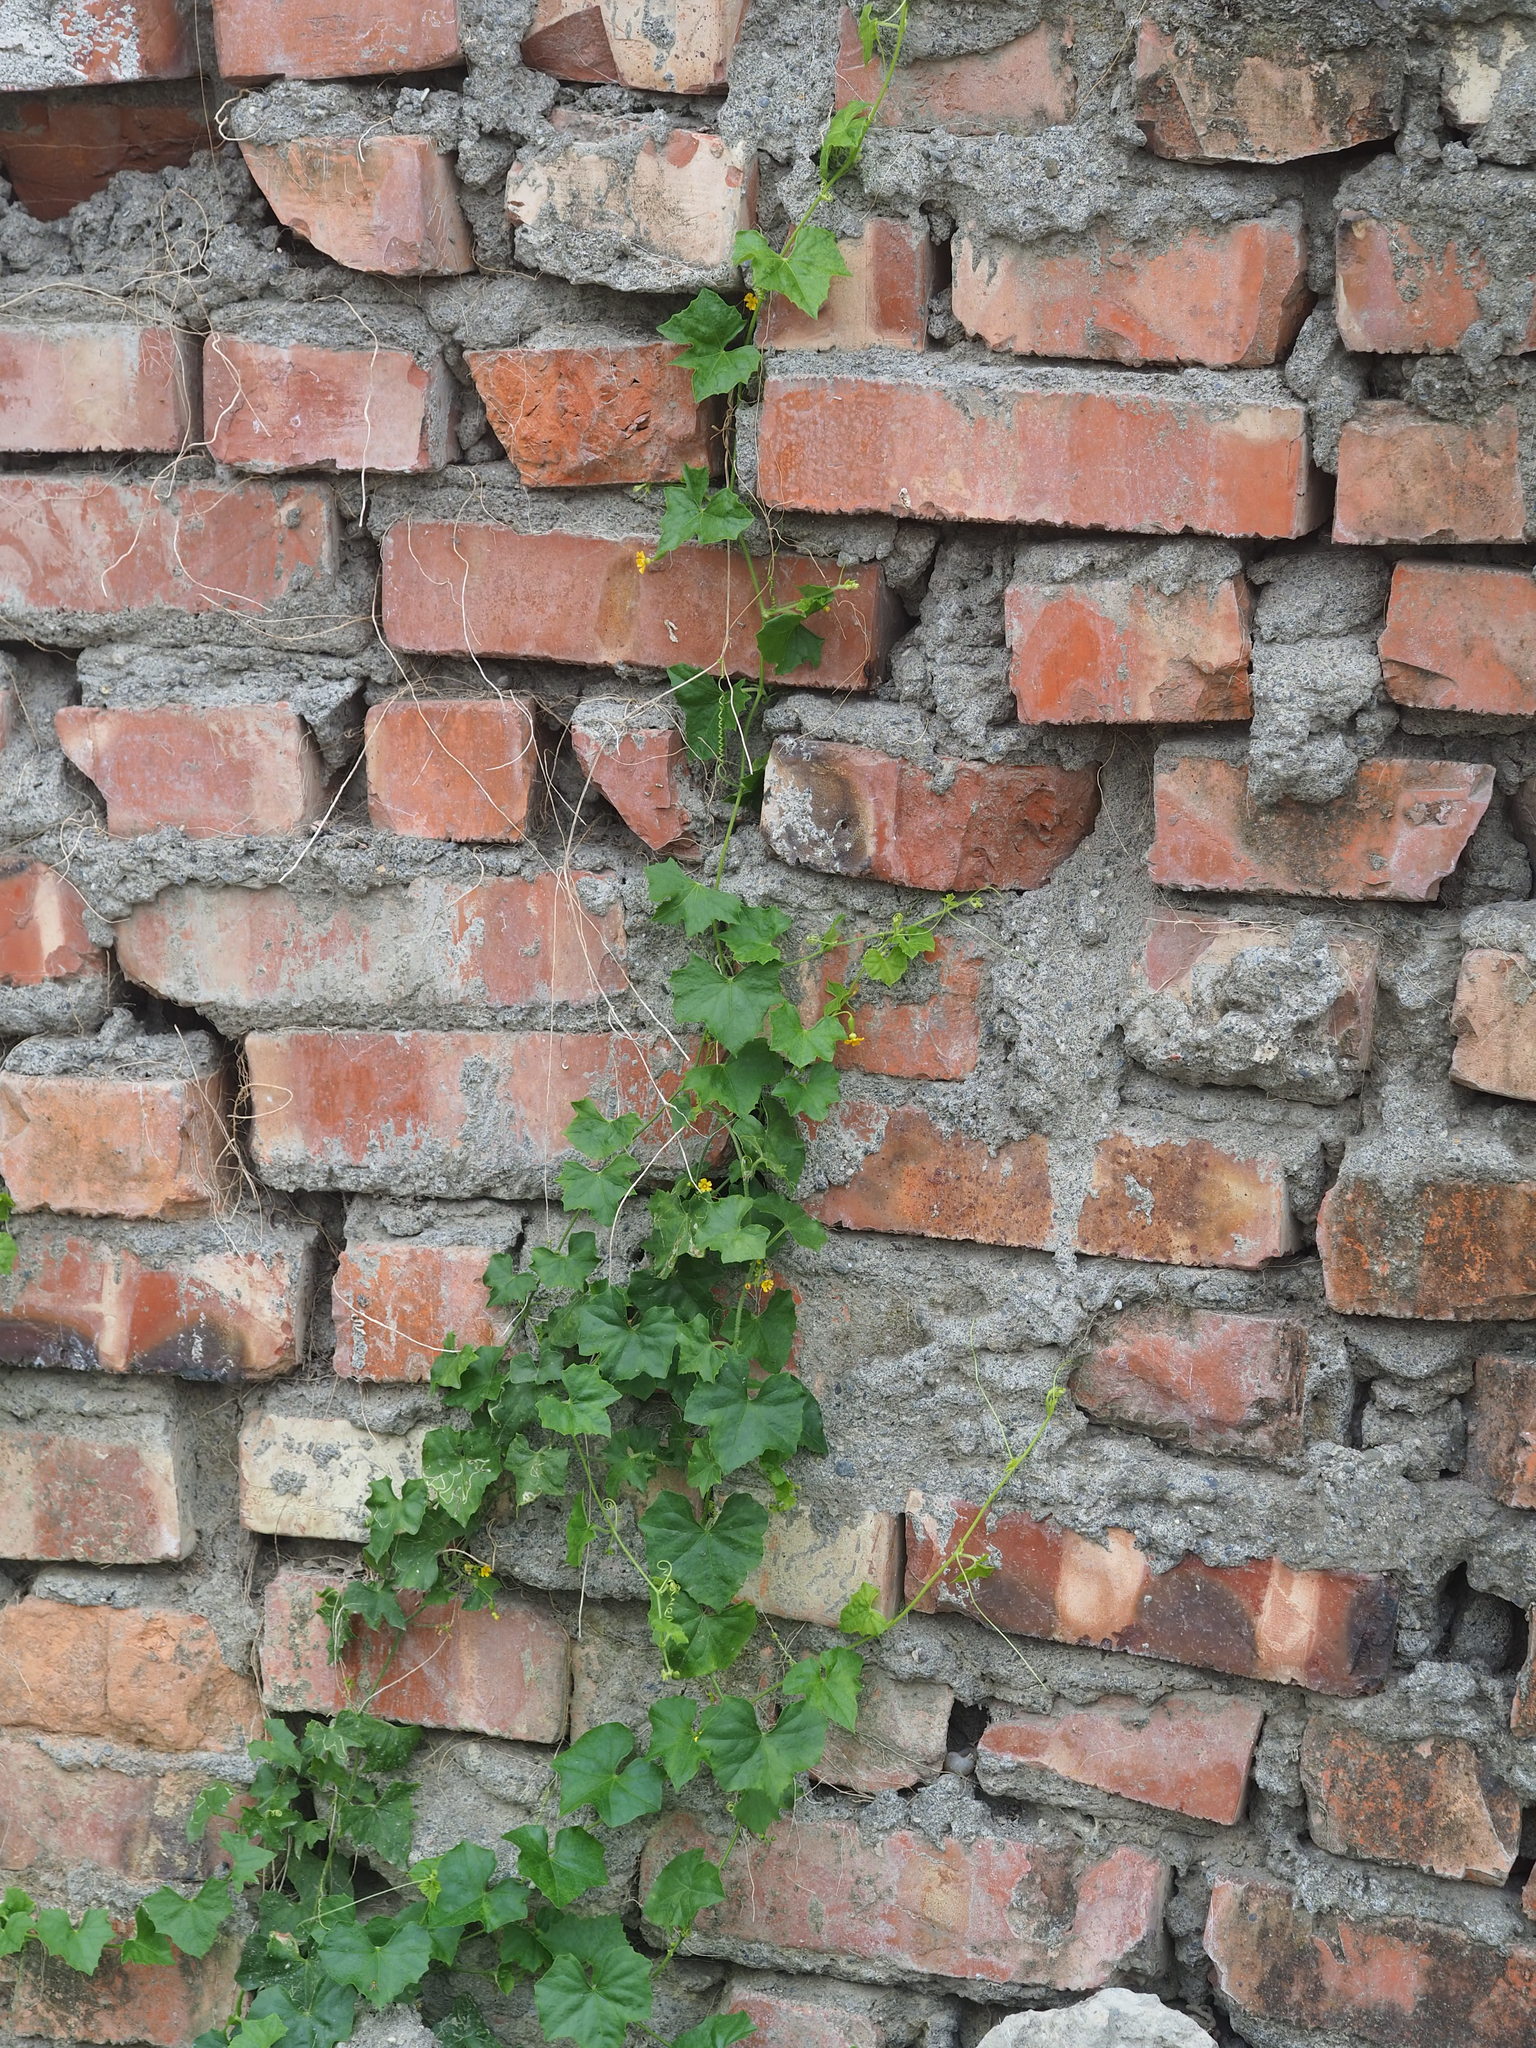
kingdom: Plantae
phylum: Tracheophyta
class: Magnoliopsida
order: Cucurbitales
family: Cucurbitaceae
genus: Melothria
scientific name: Melothria pendula
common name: Creeping-cucumber
